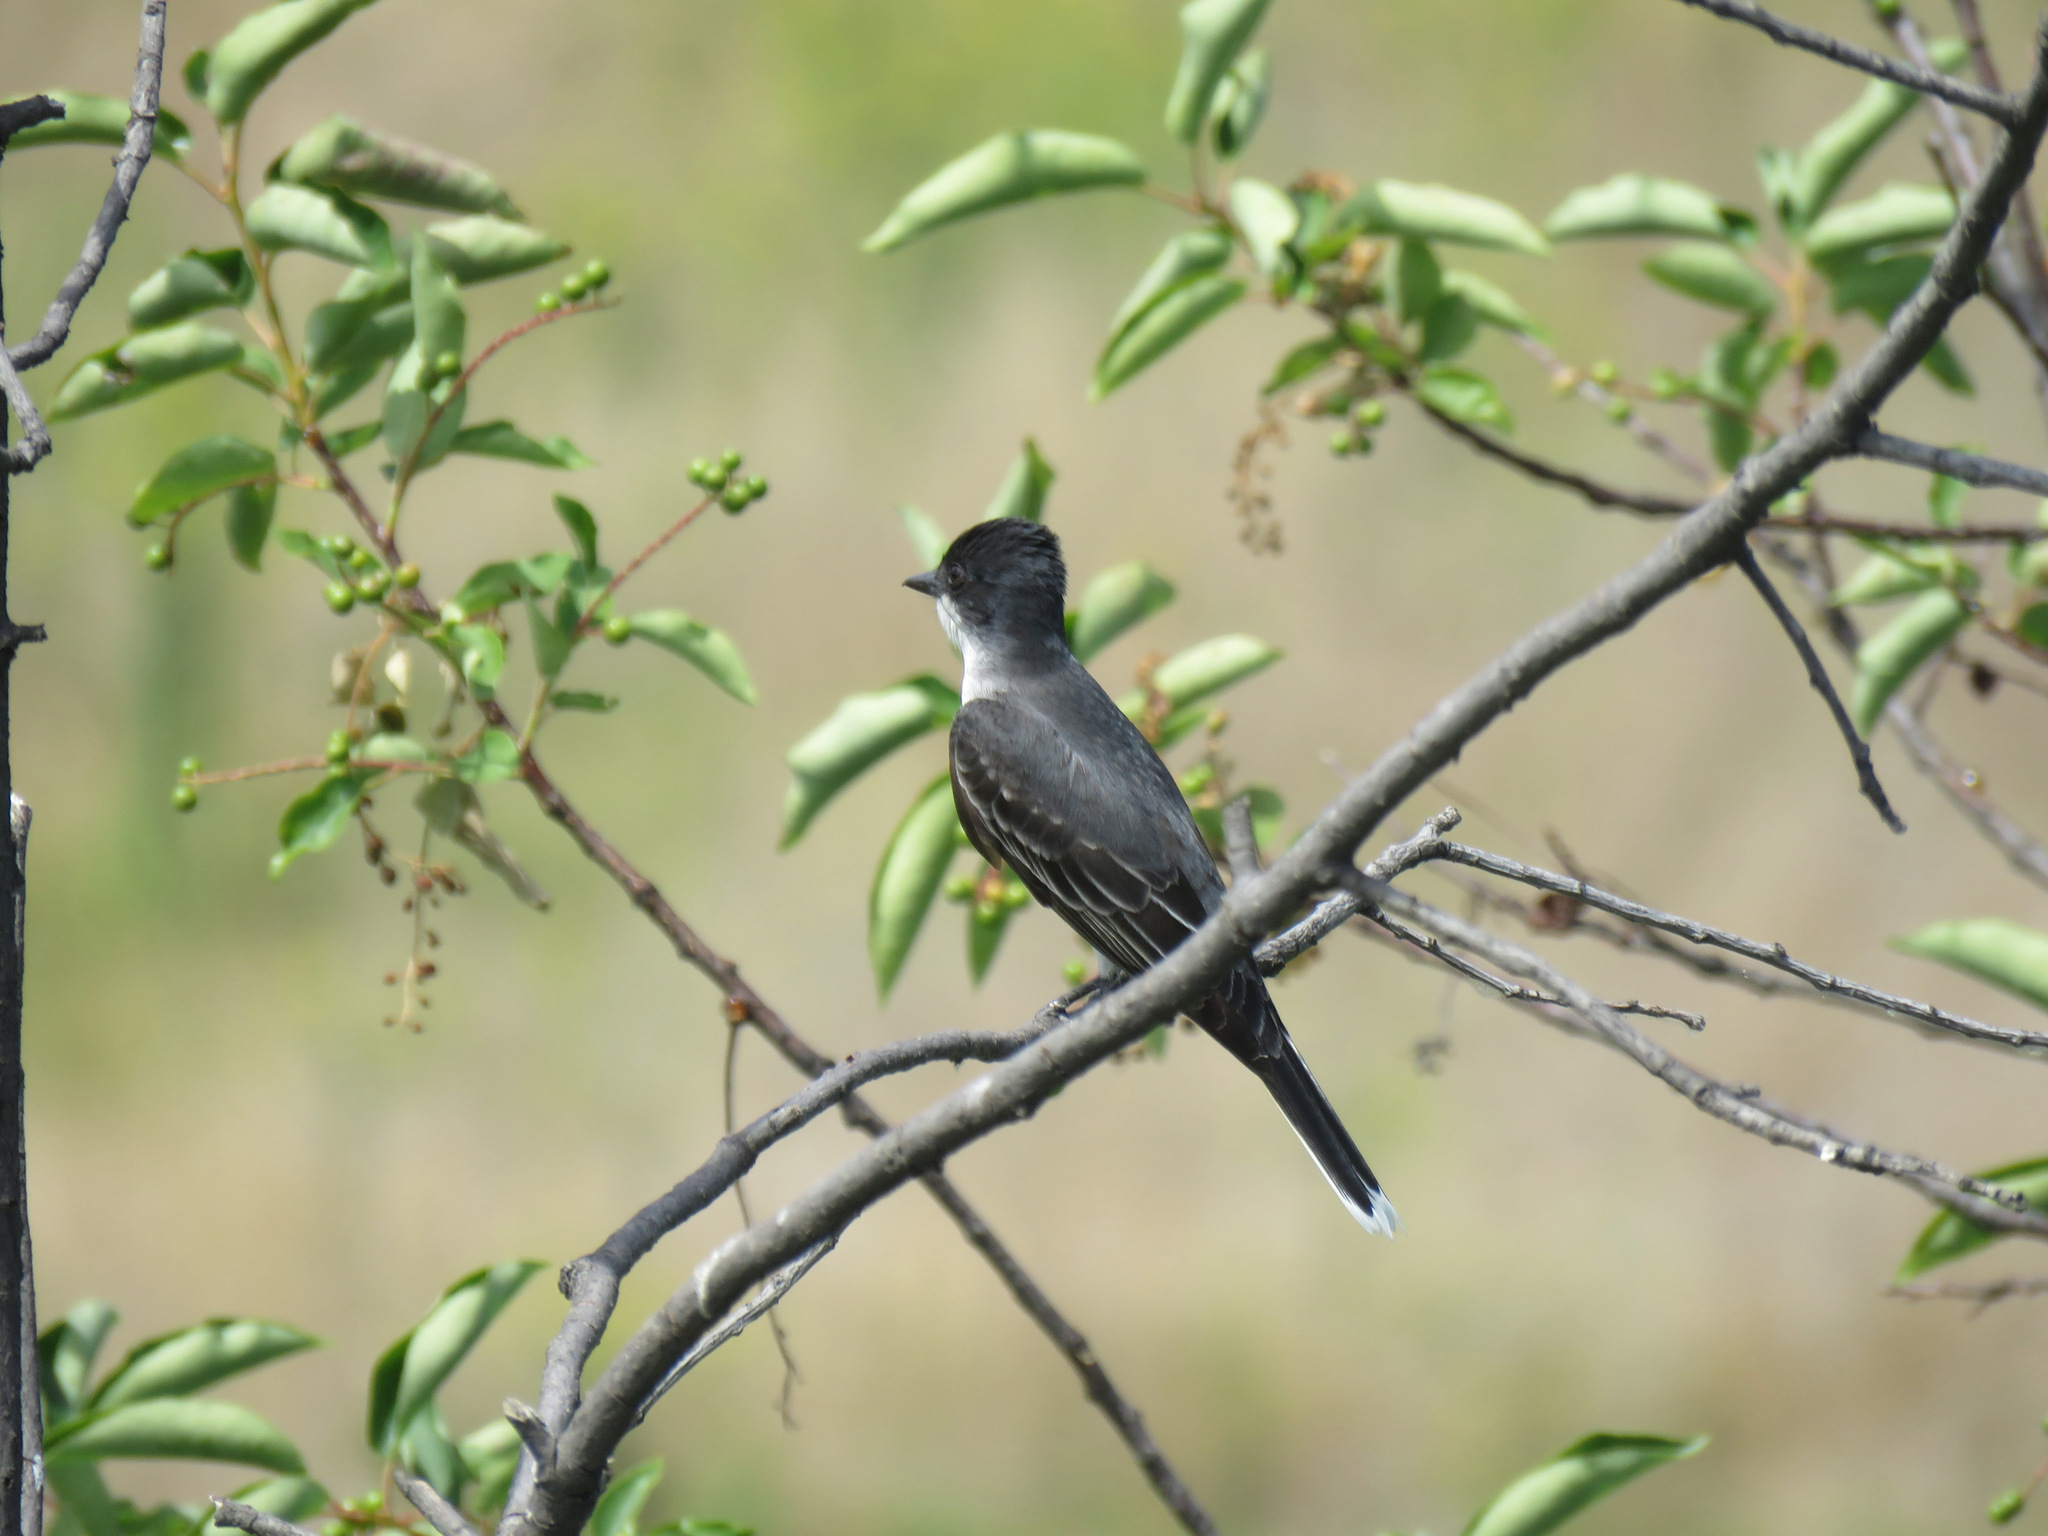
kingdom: Animalia
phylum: Chordata
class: Aves
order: Passeriformes
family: Tyrannidae
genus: Tyrannus
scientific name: Tyrannus tyrannus
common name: Eastern kingbird
